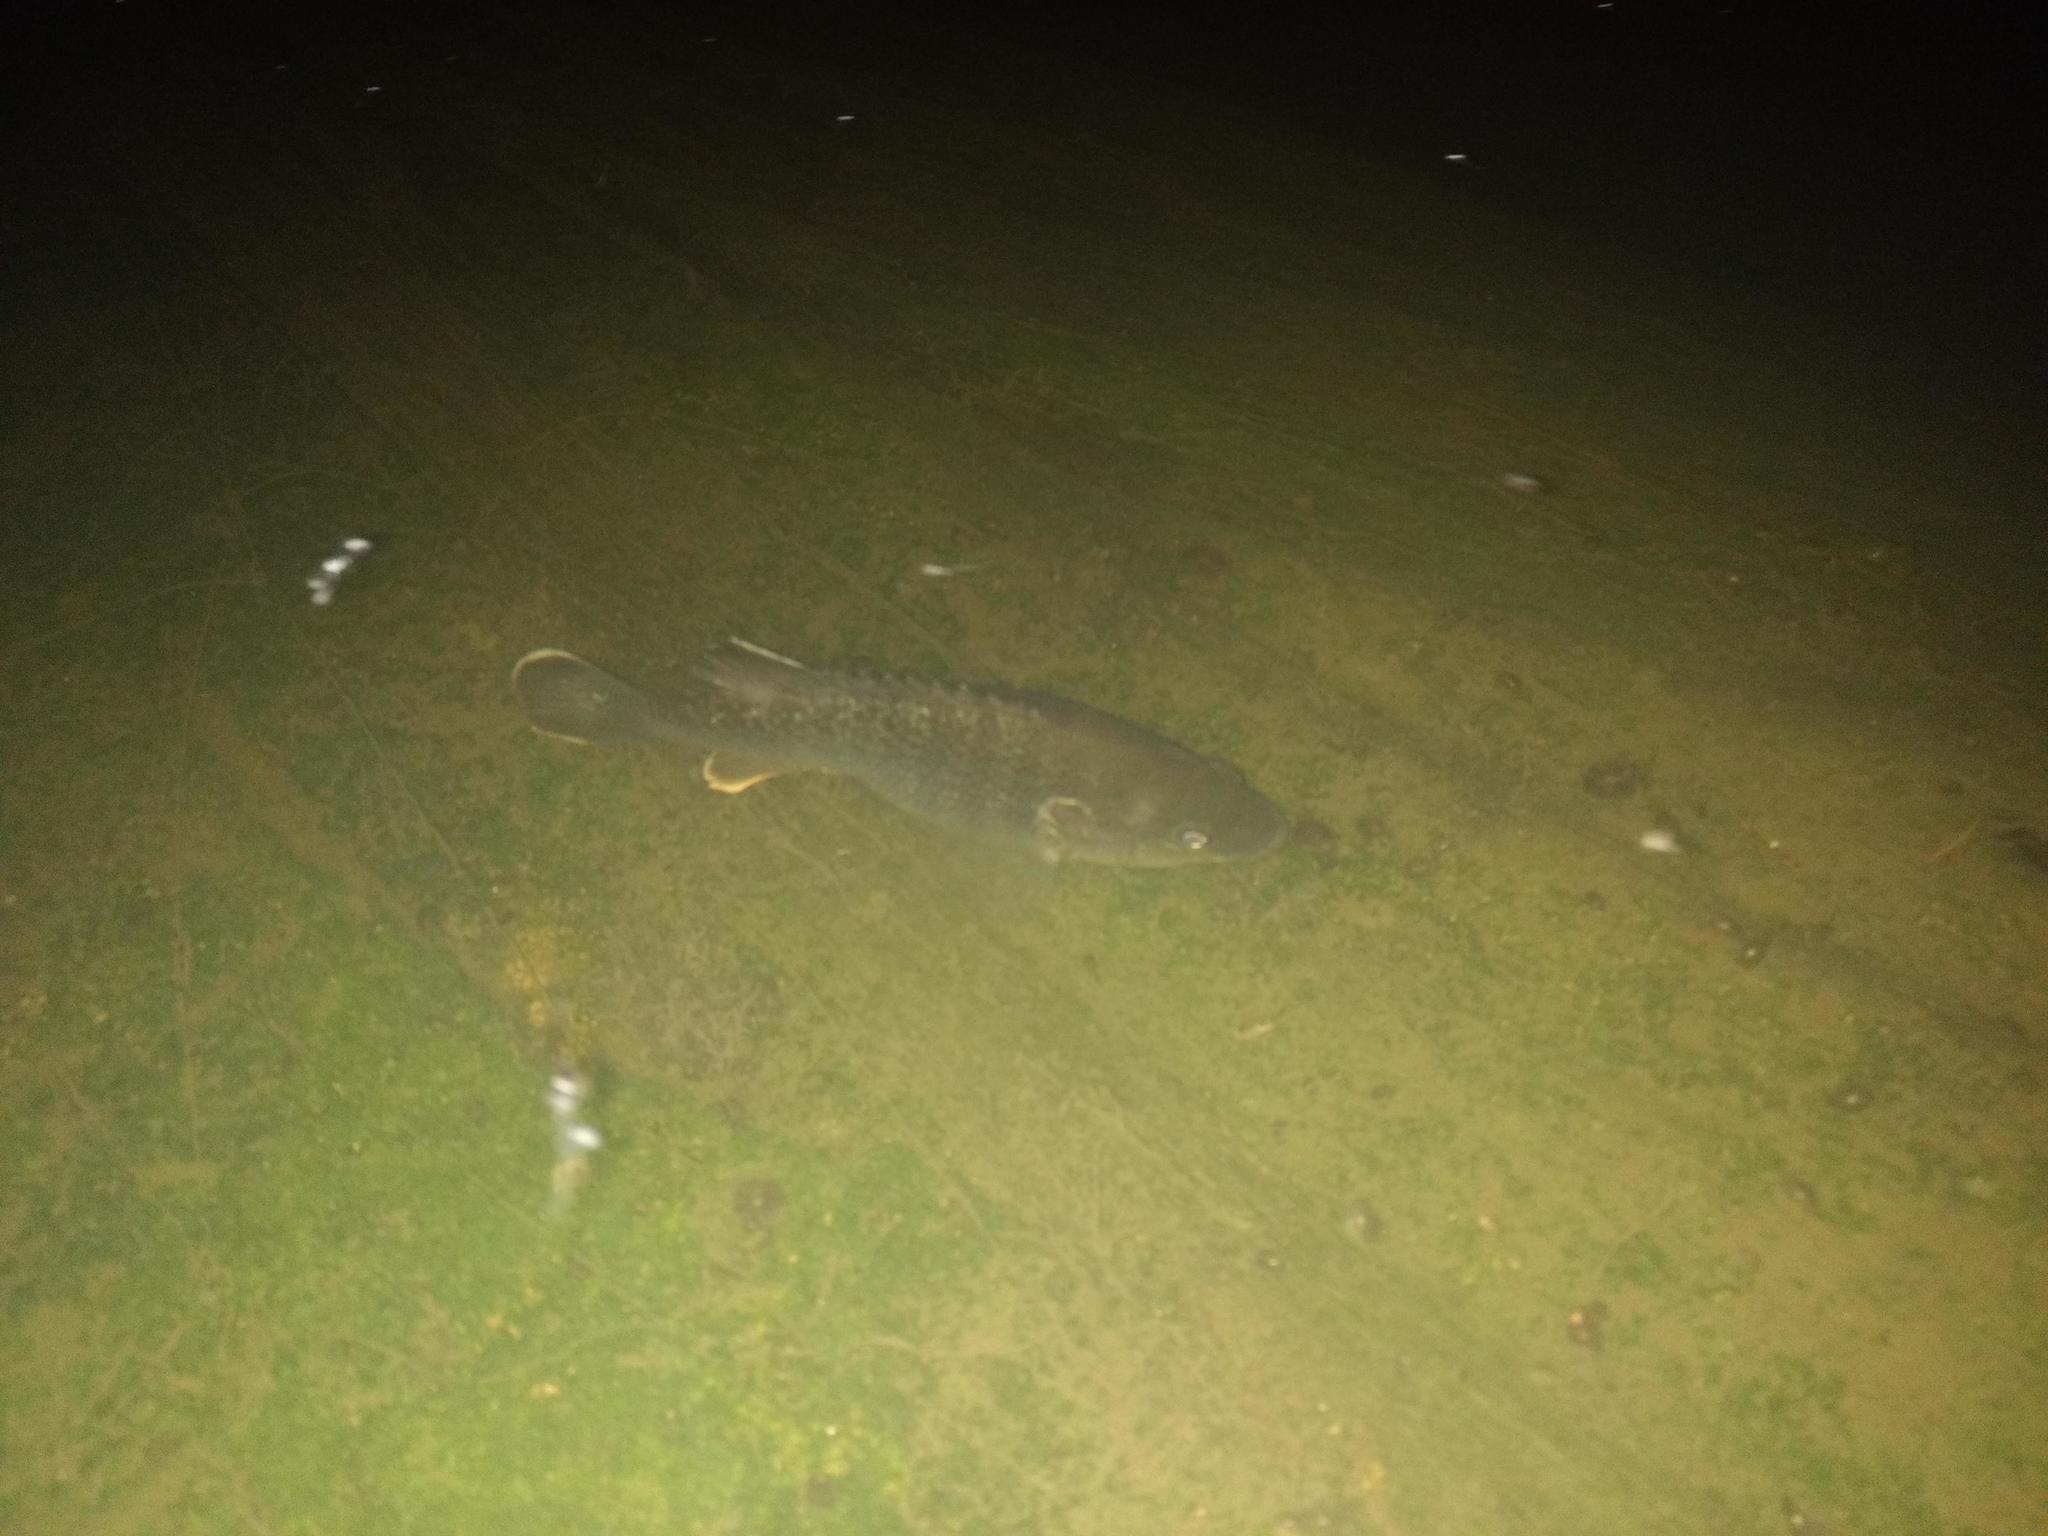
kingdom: Animalia
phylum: Chordata
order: Perciformes
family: Centrarchidae
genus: Lepomis
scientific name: Lepomis cyanellus
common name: Green sunfish
